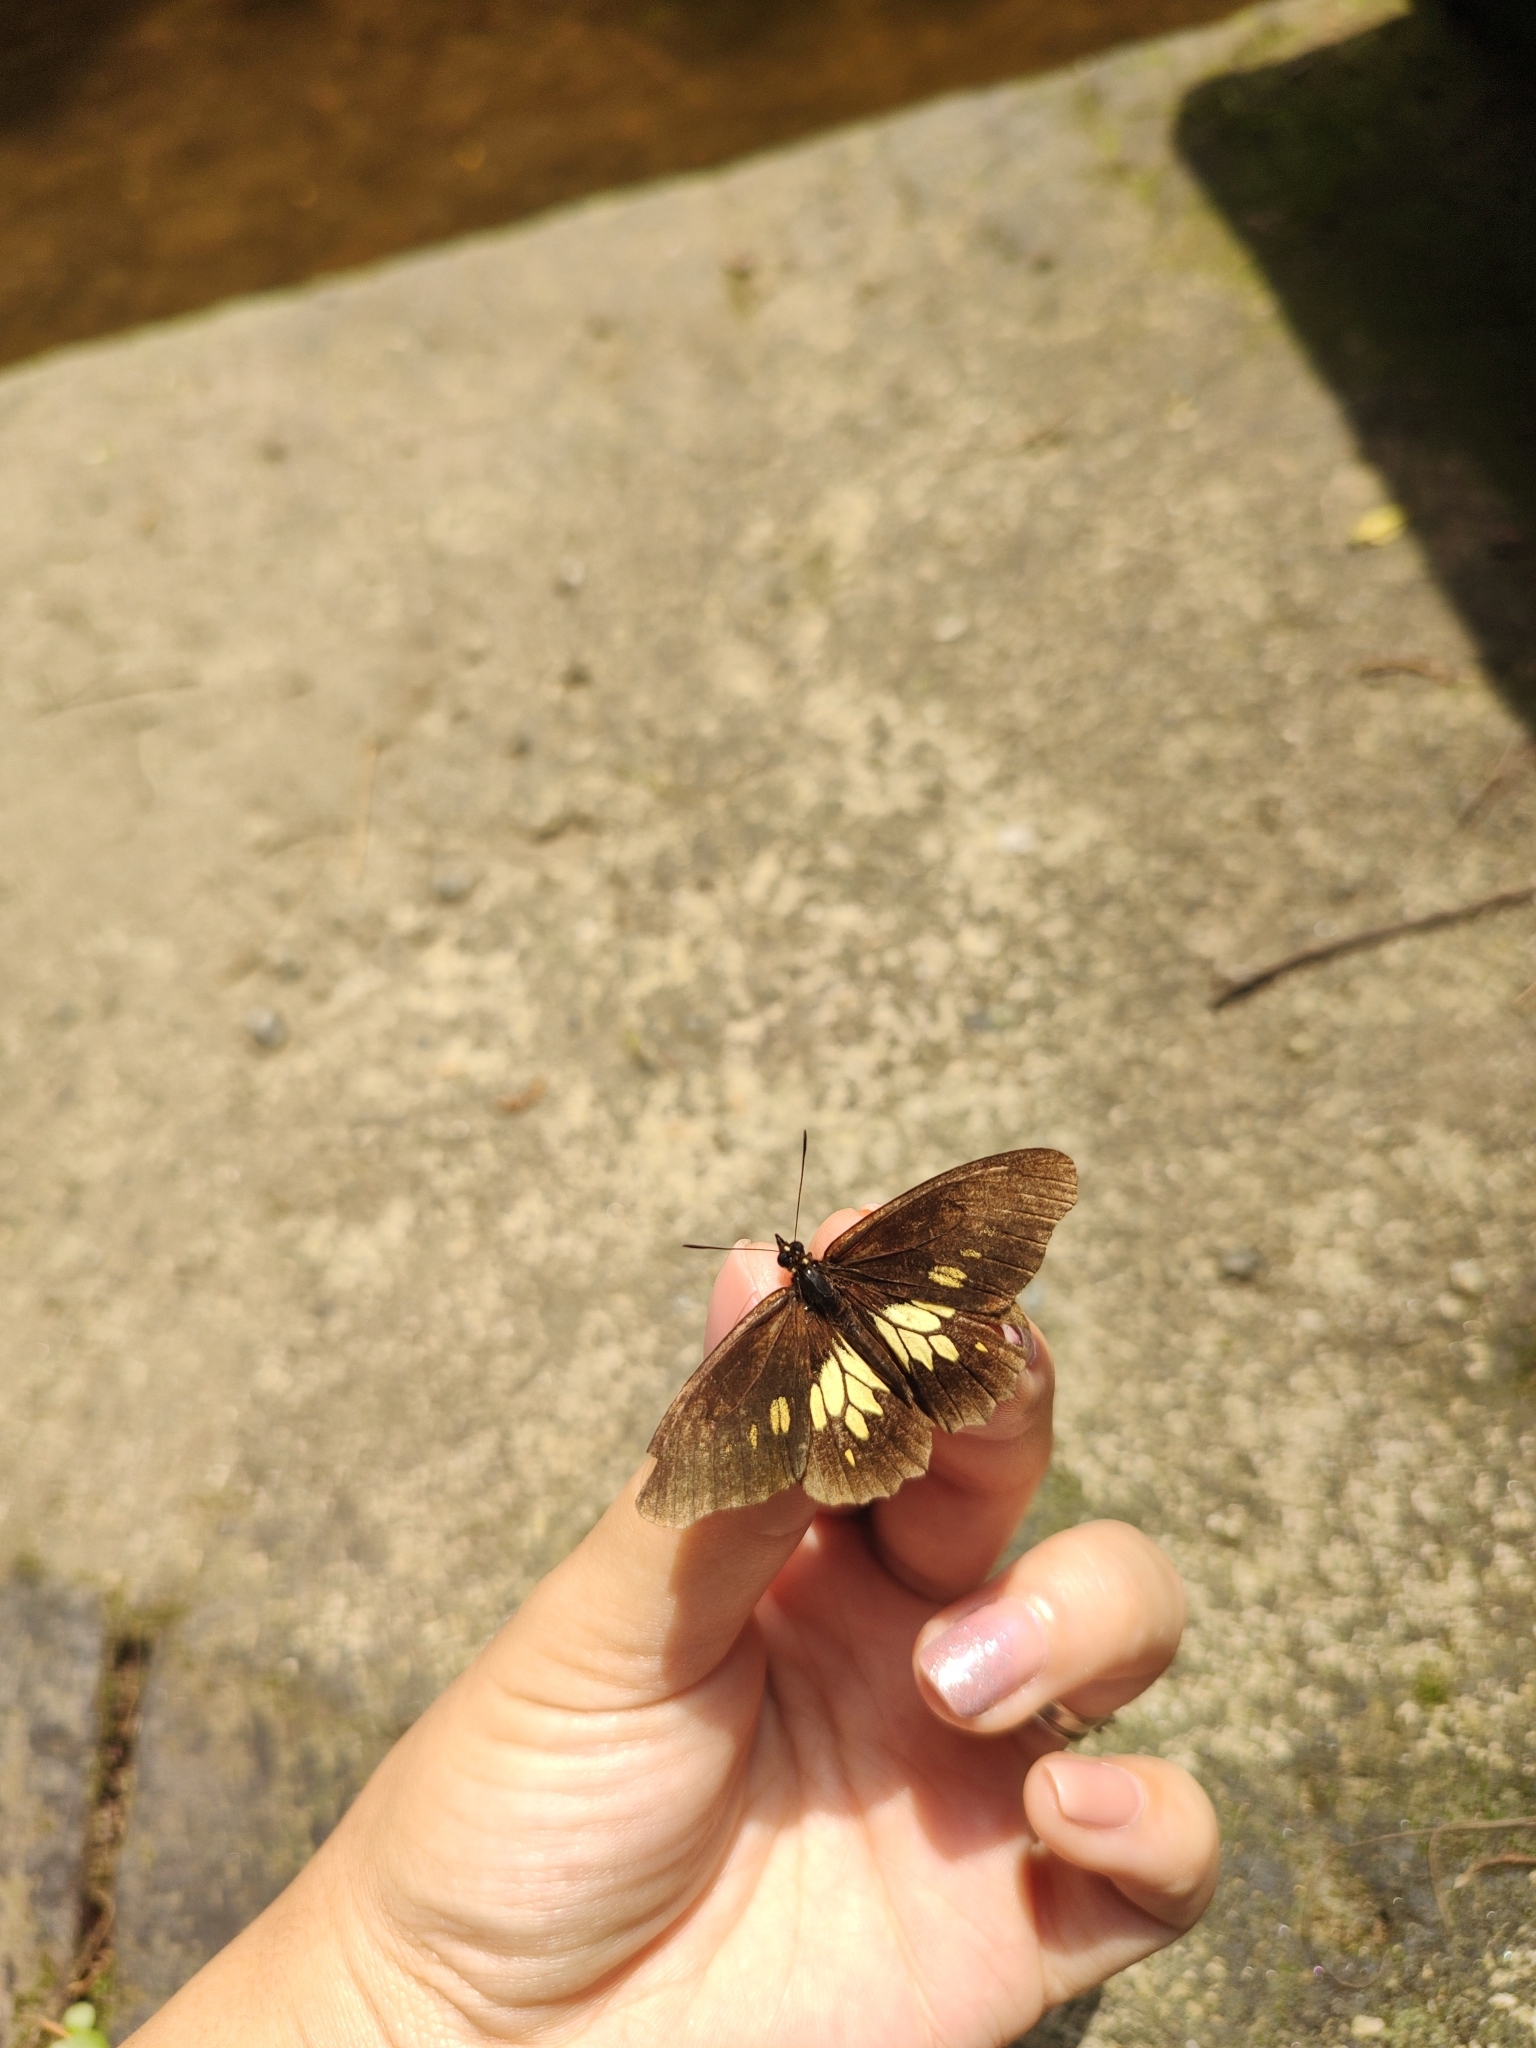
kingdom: Animalia
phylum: Arthropoda
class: Insecta
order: Lepidoptera
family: Nymphalidae
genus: Eteona
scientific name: Eteona tisiphone
